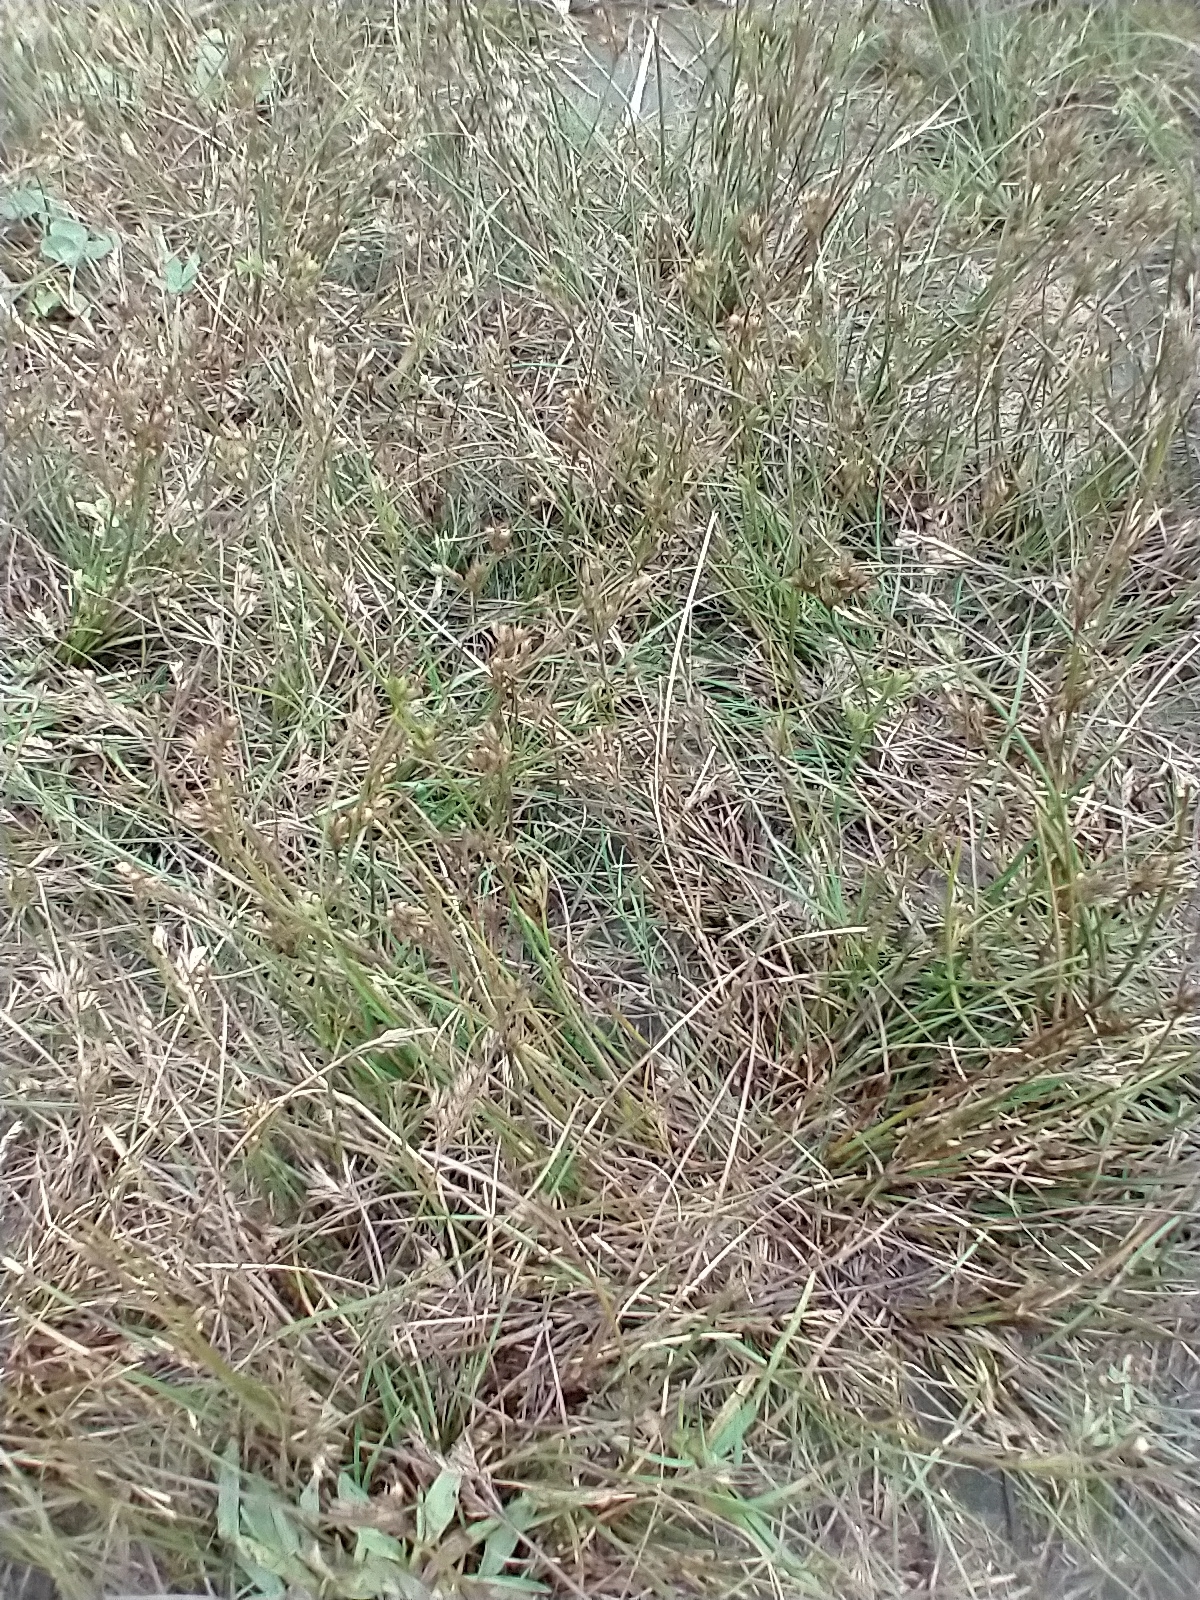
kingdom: Plantae
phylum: Tracheophyta
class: Liliopsida
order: Poales
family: Juncaceae
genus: Juncus
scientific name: Juncus tenuis
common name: Slender rush
